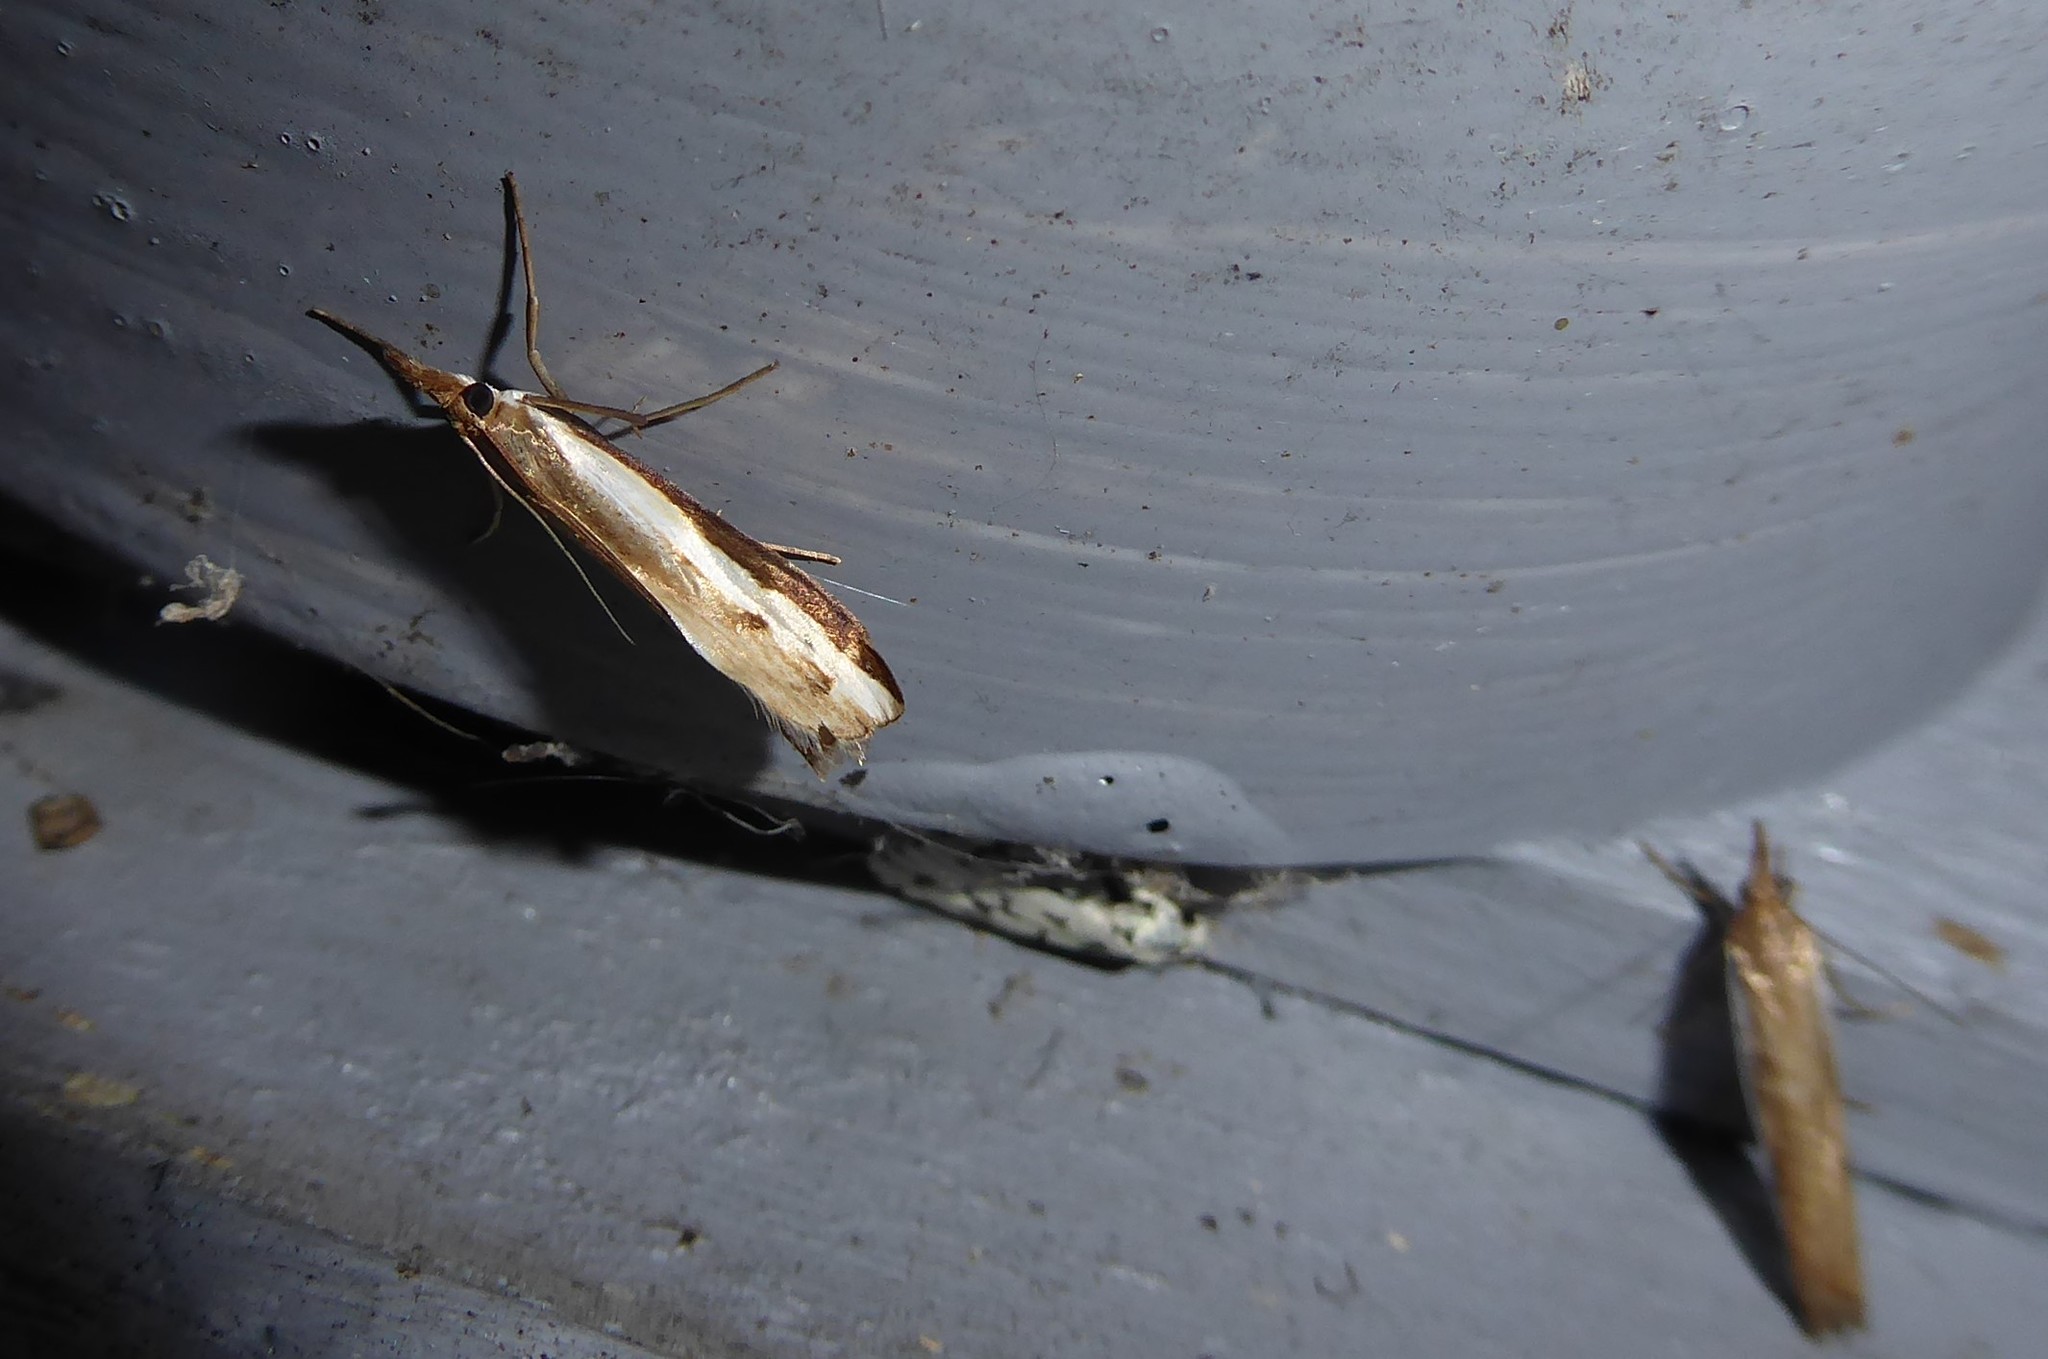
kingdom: Animalia
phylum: Arthropoda
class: Insecta
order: Lepidoptera
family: Crambidae
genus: Orocrambus
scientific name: Orocrambus flexuosellus
